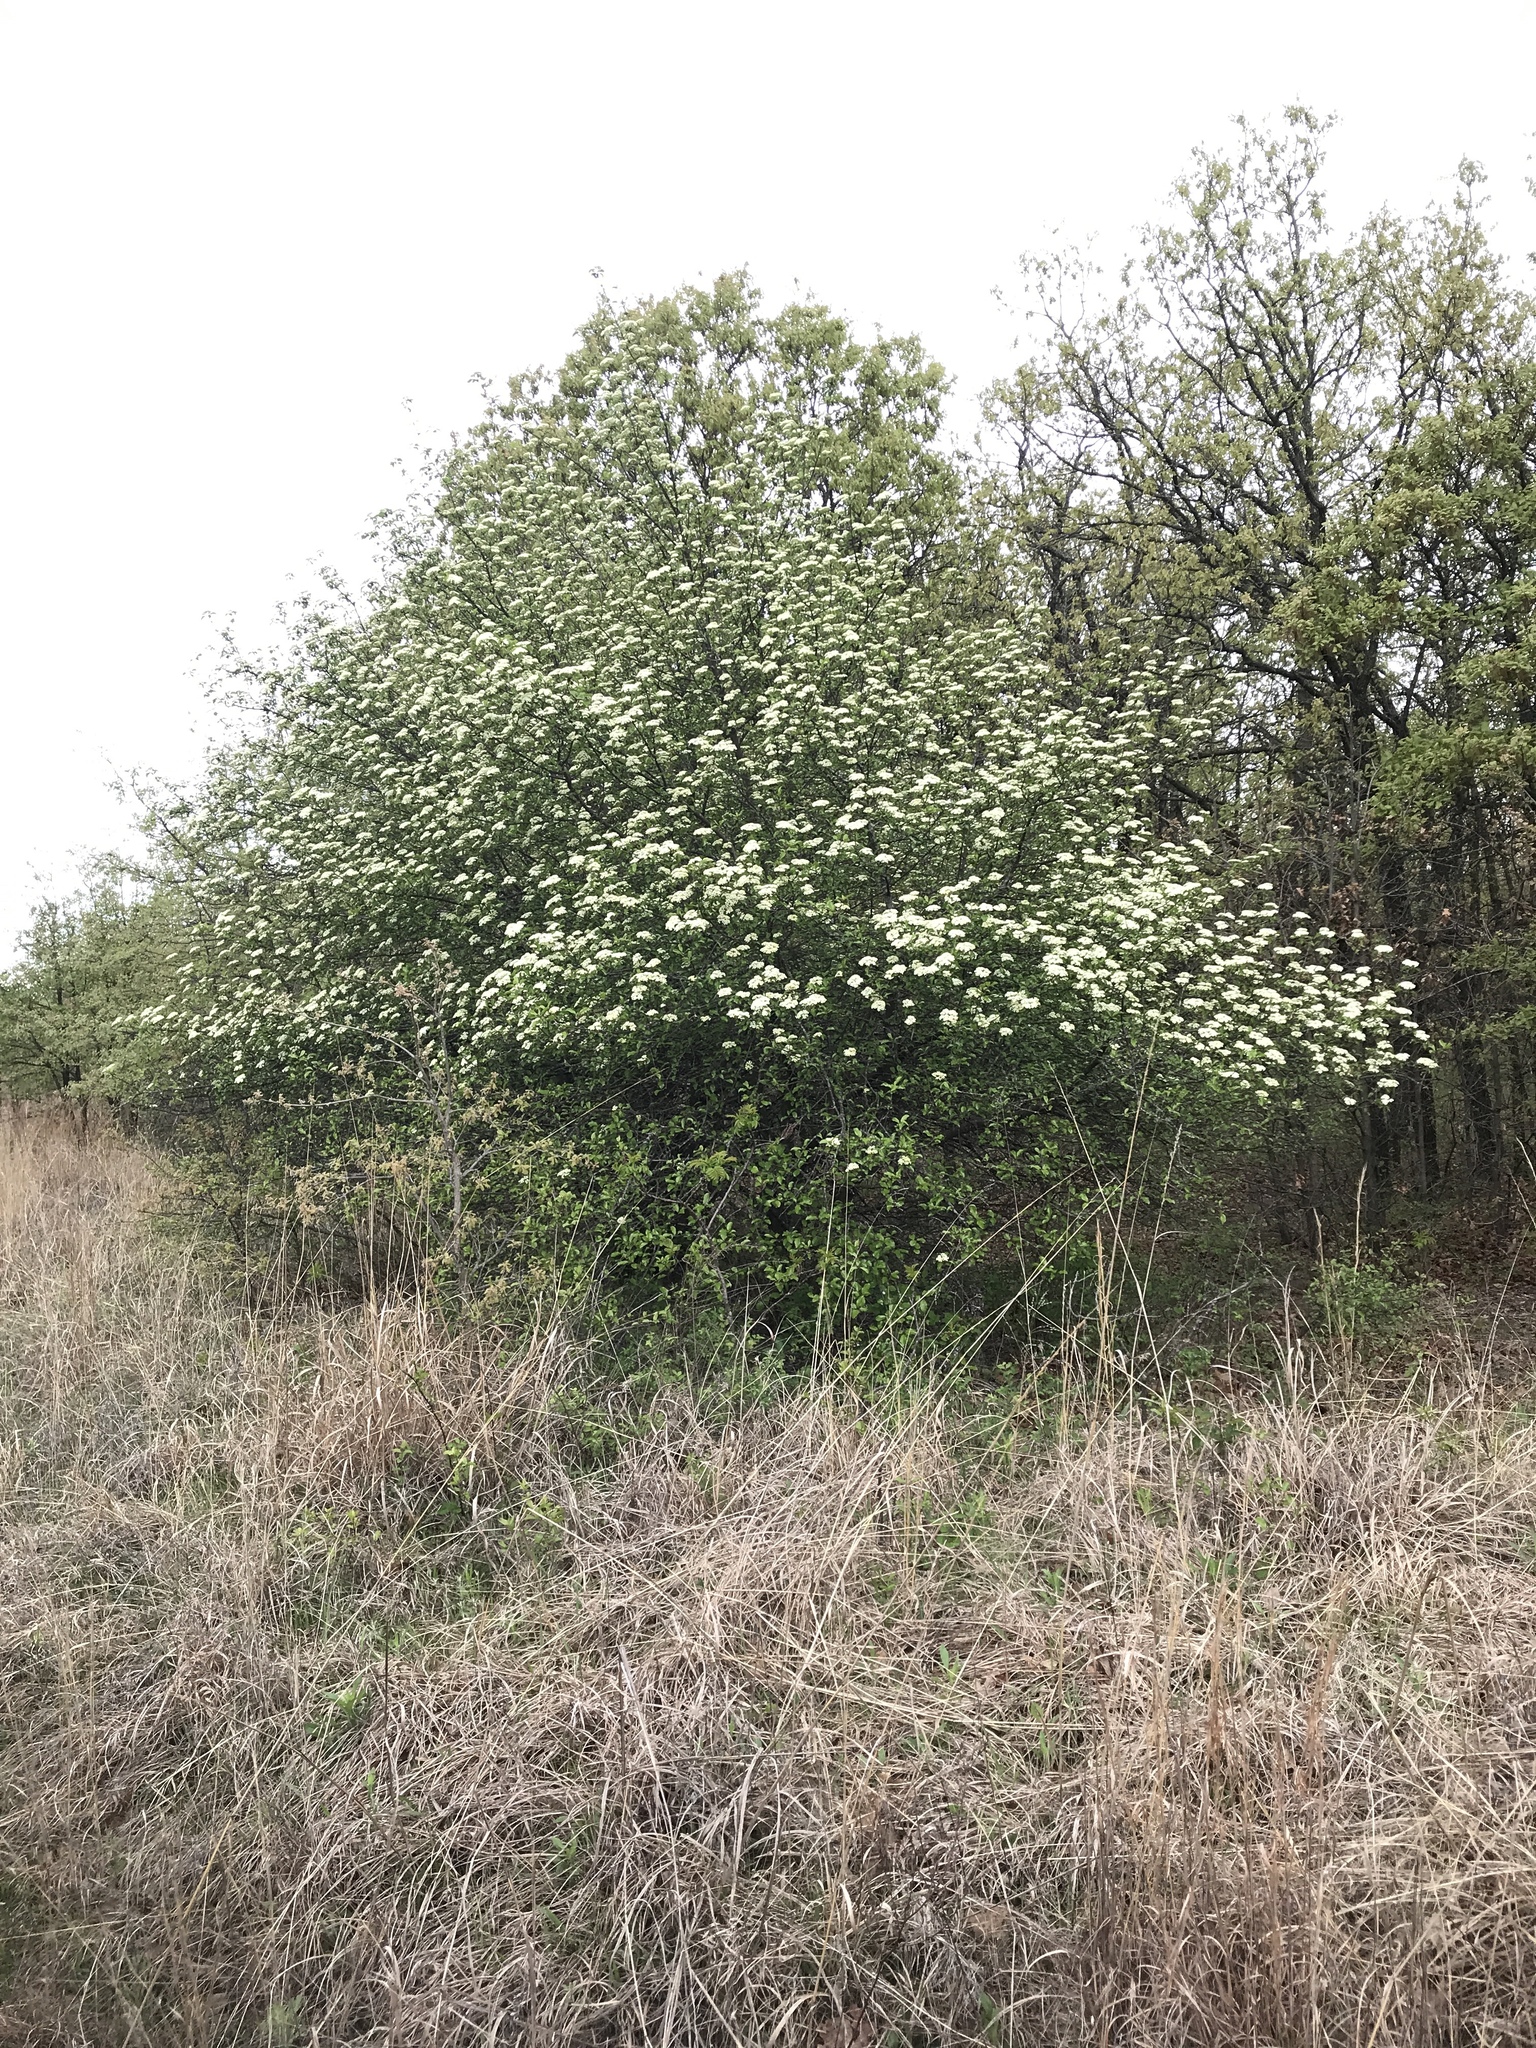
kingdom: Plantae
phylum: Tracheophyta
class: Magnoliopsida
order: Dipsacales
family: Viburnaceae
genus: Viburnum
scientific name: Viburnum rufidulum
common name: Blue haw
